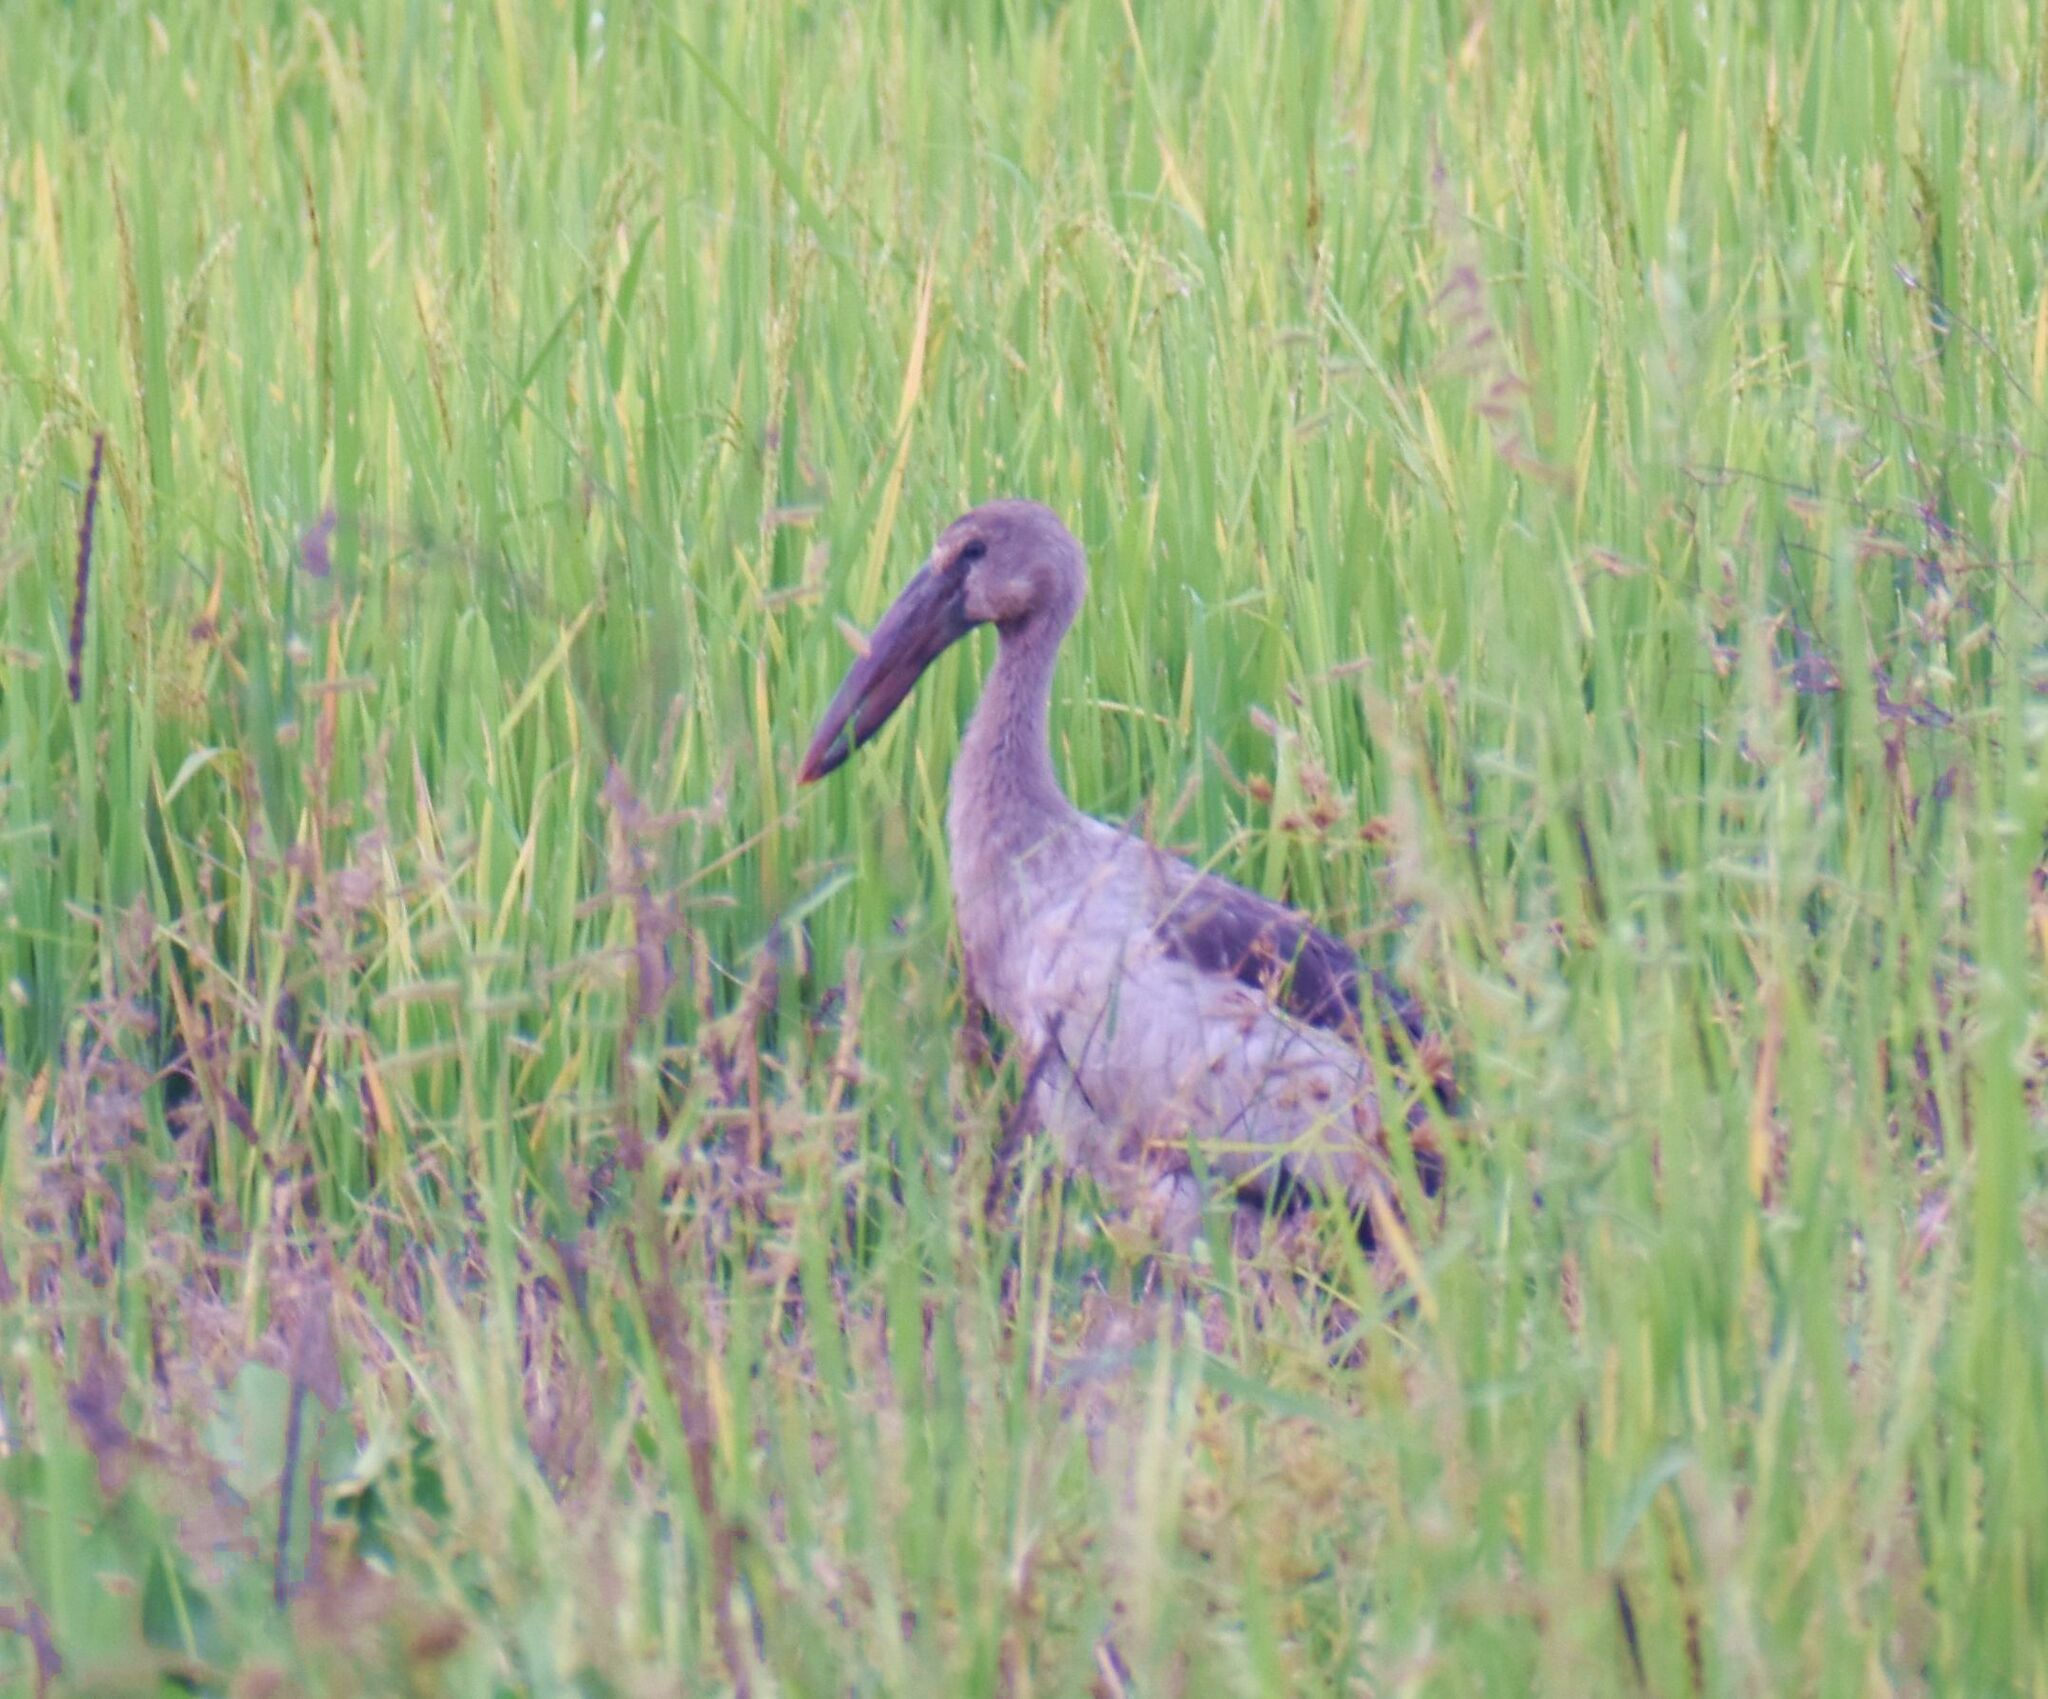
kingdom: Animalia
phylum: Chordata
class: Aves
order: Ciconiiformes
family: Ciconiidae
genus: Anastomus
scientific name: Anastomus oscitans
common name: Asian openbill
